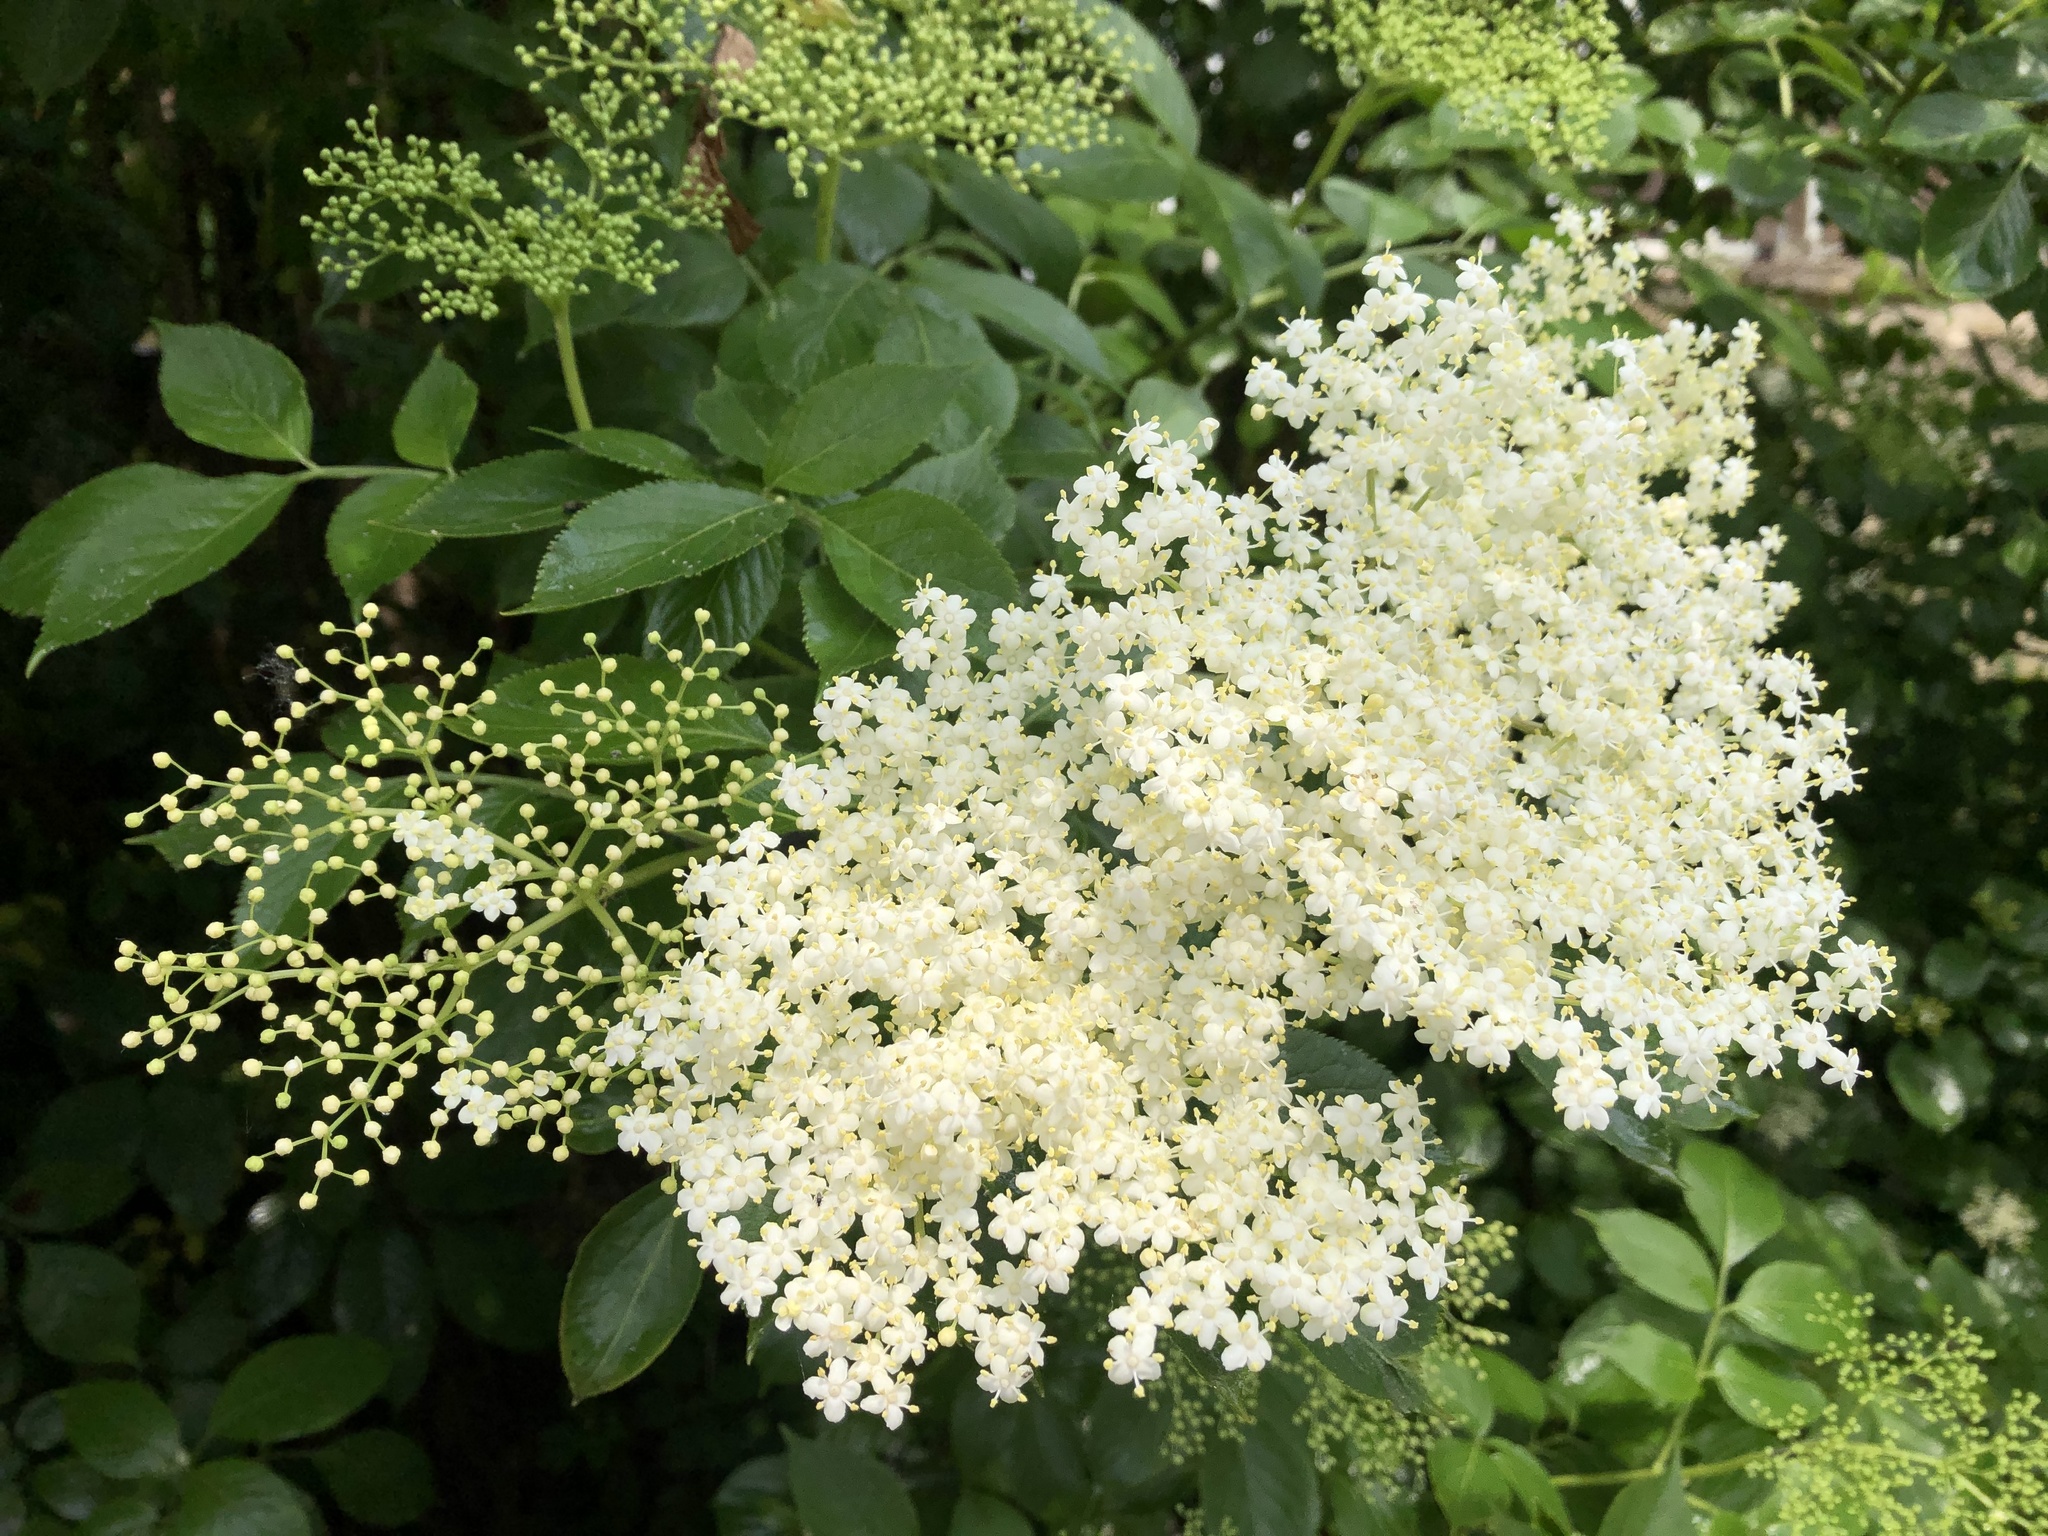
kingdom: Plantae
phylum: Tracheophyta
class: Magnoliopsida
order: Dipsacales
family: Viburnaceae
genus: Sambucus
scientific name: Sambucus nigra
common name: Elder
